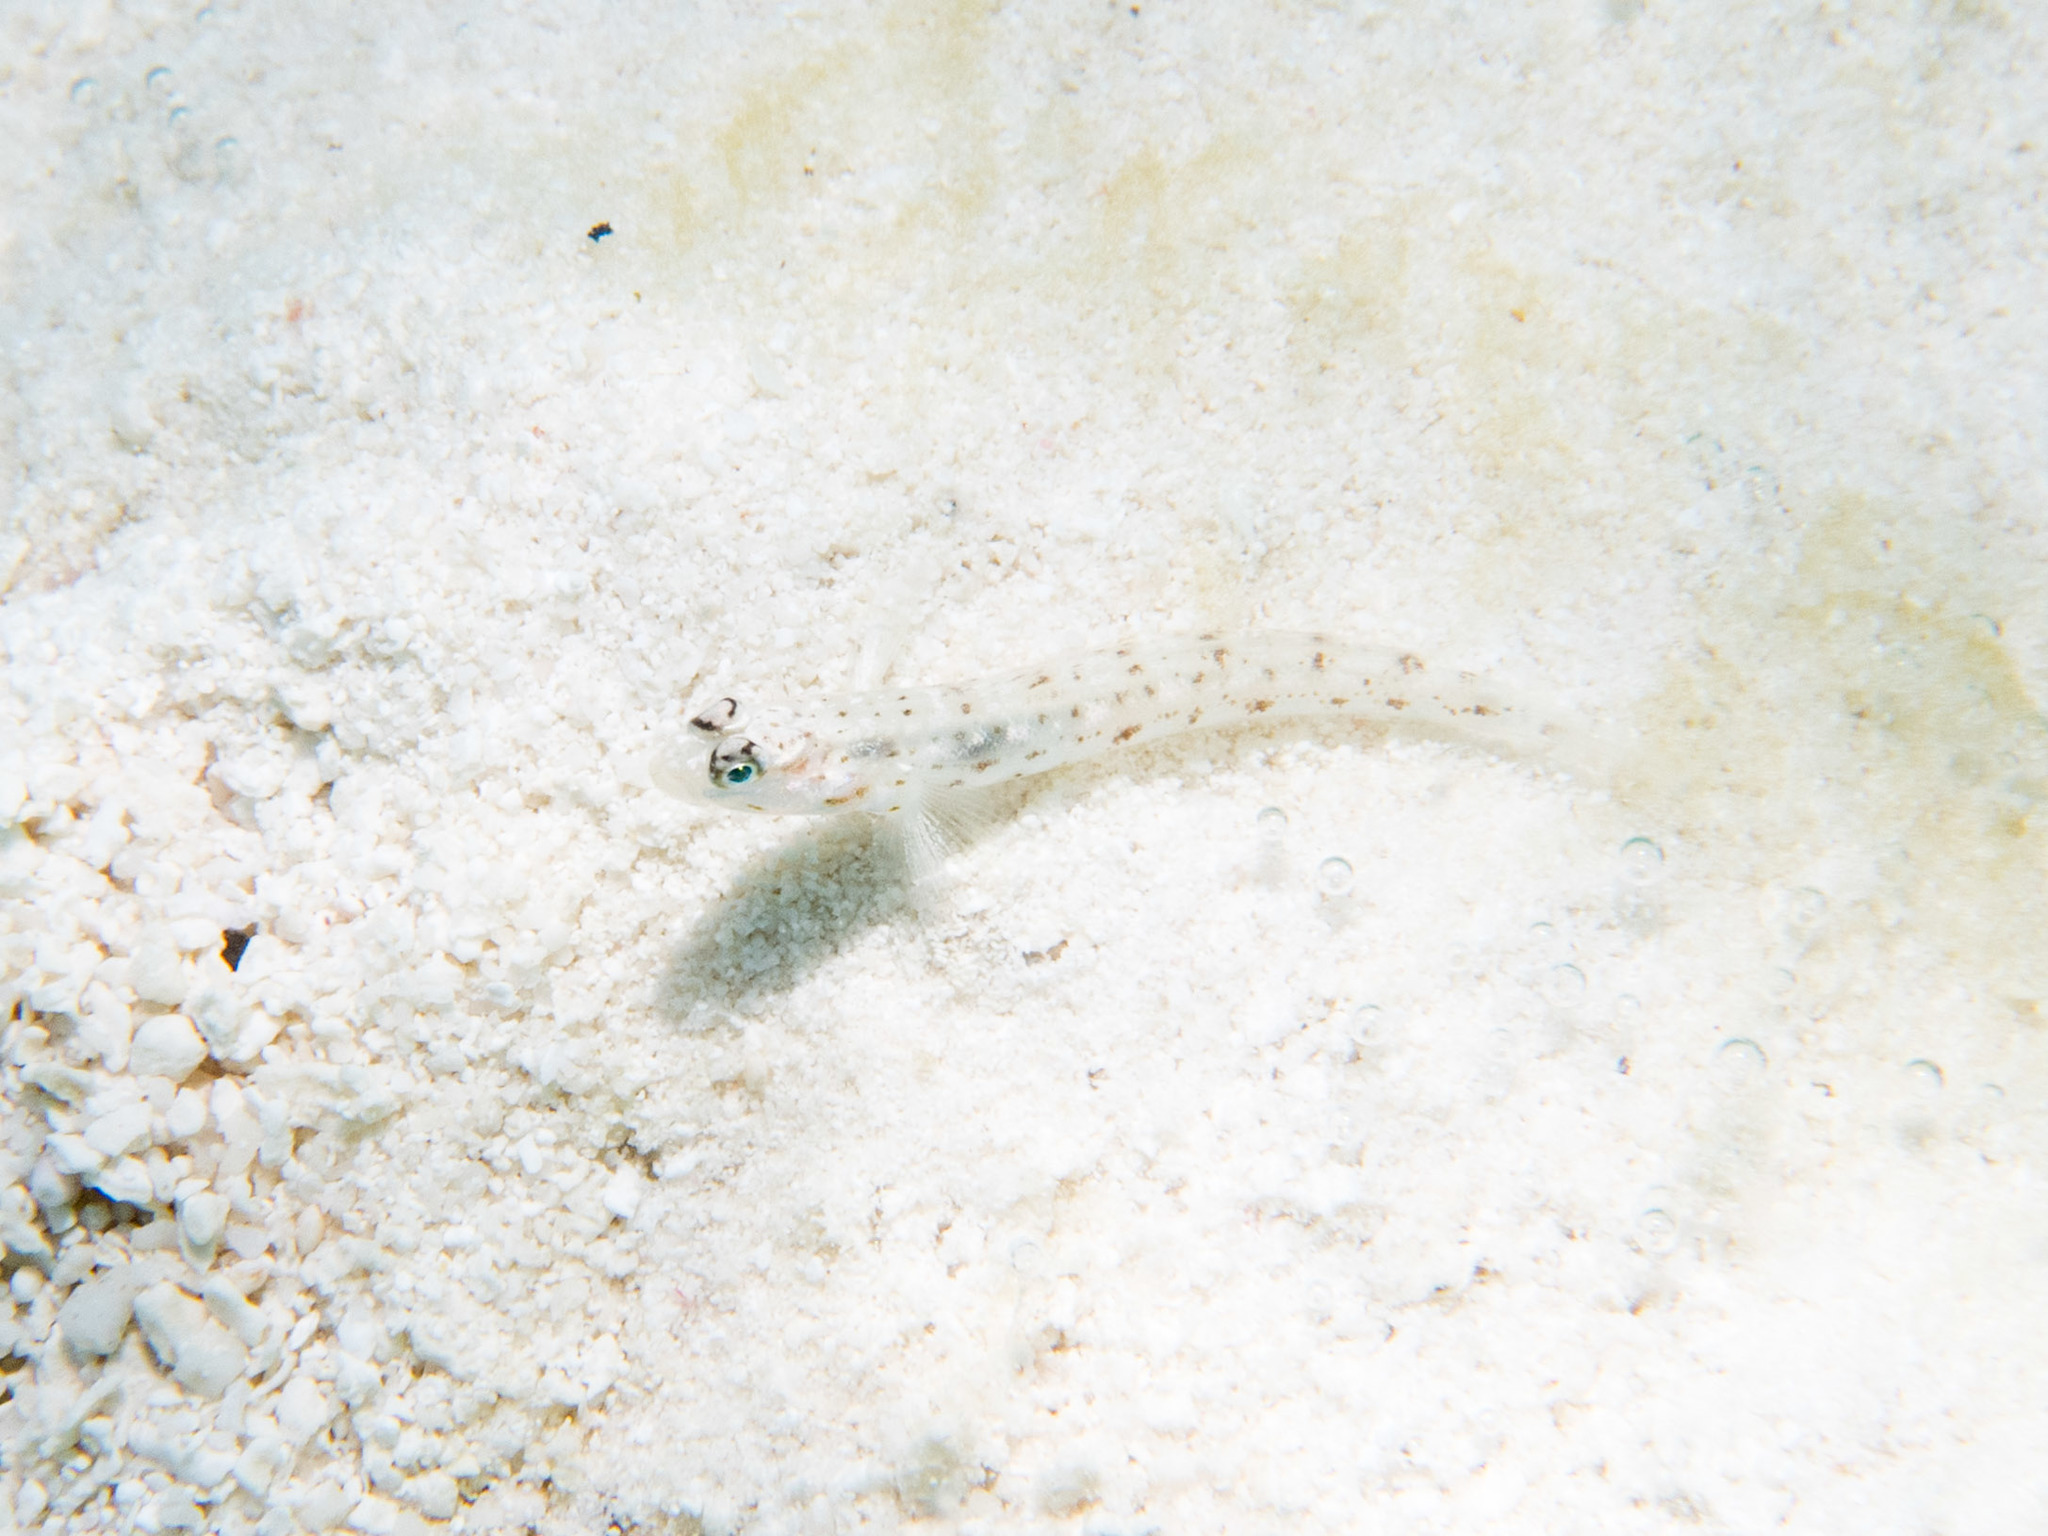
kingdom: Animalia
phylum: Chordata
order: Perciformes
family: Gobiidae
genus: Vanderhorstia
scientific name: Vanderhorstia ornatissima
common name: Blue-barred shrimp-goby
